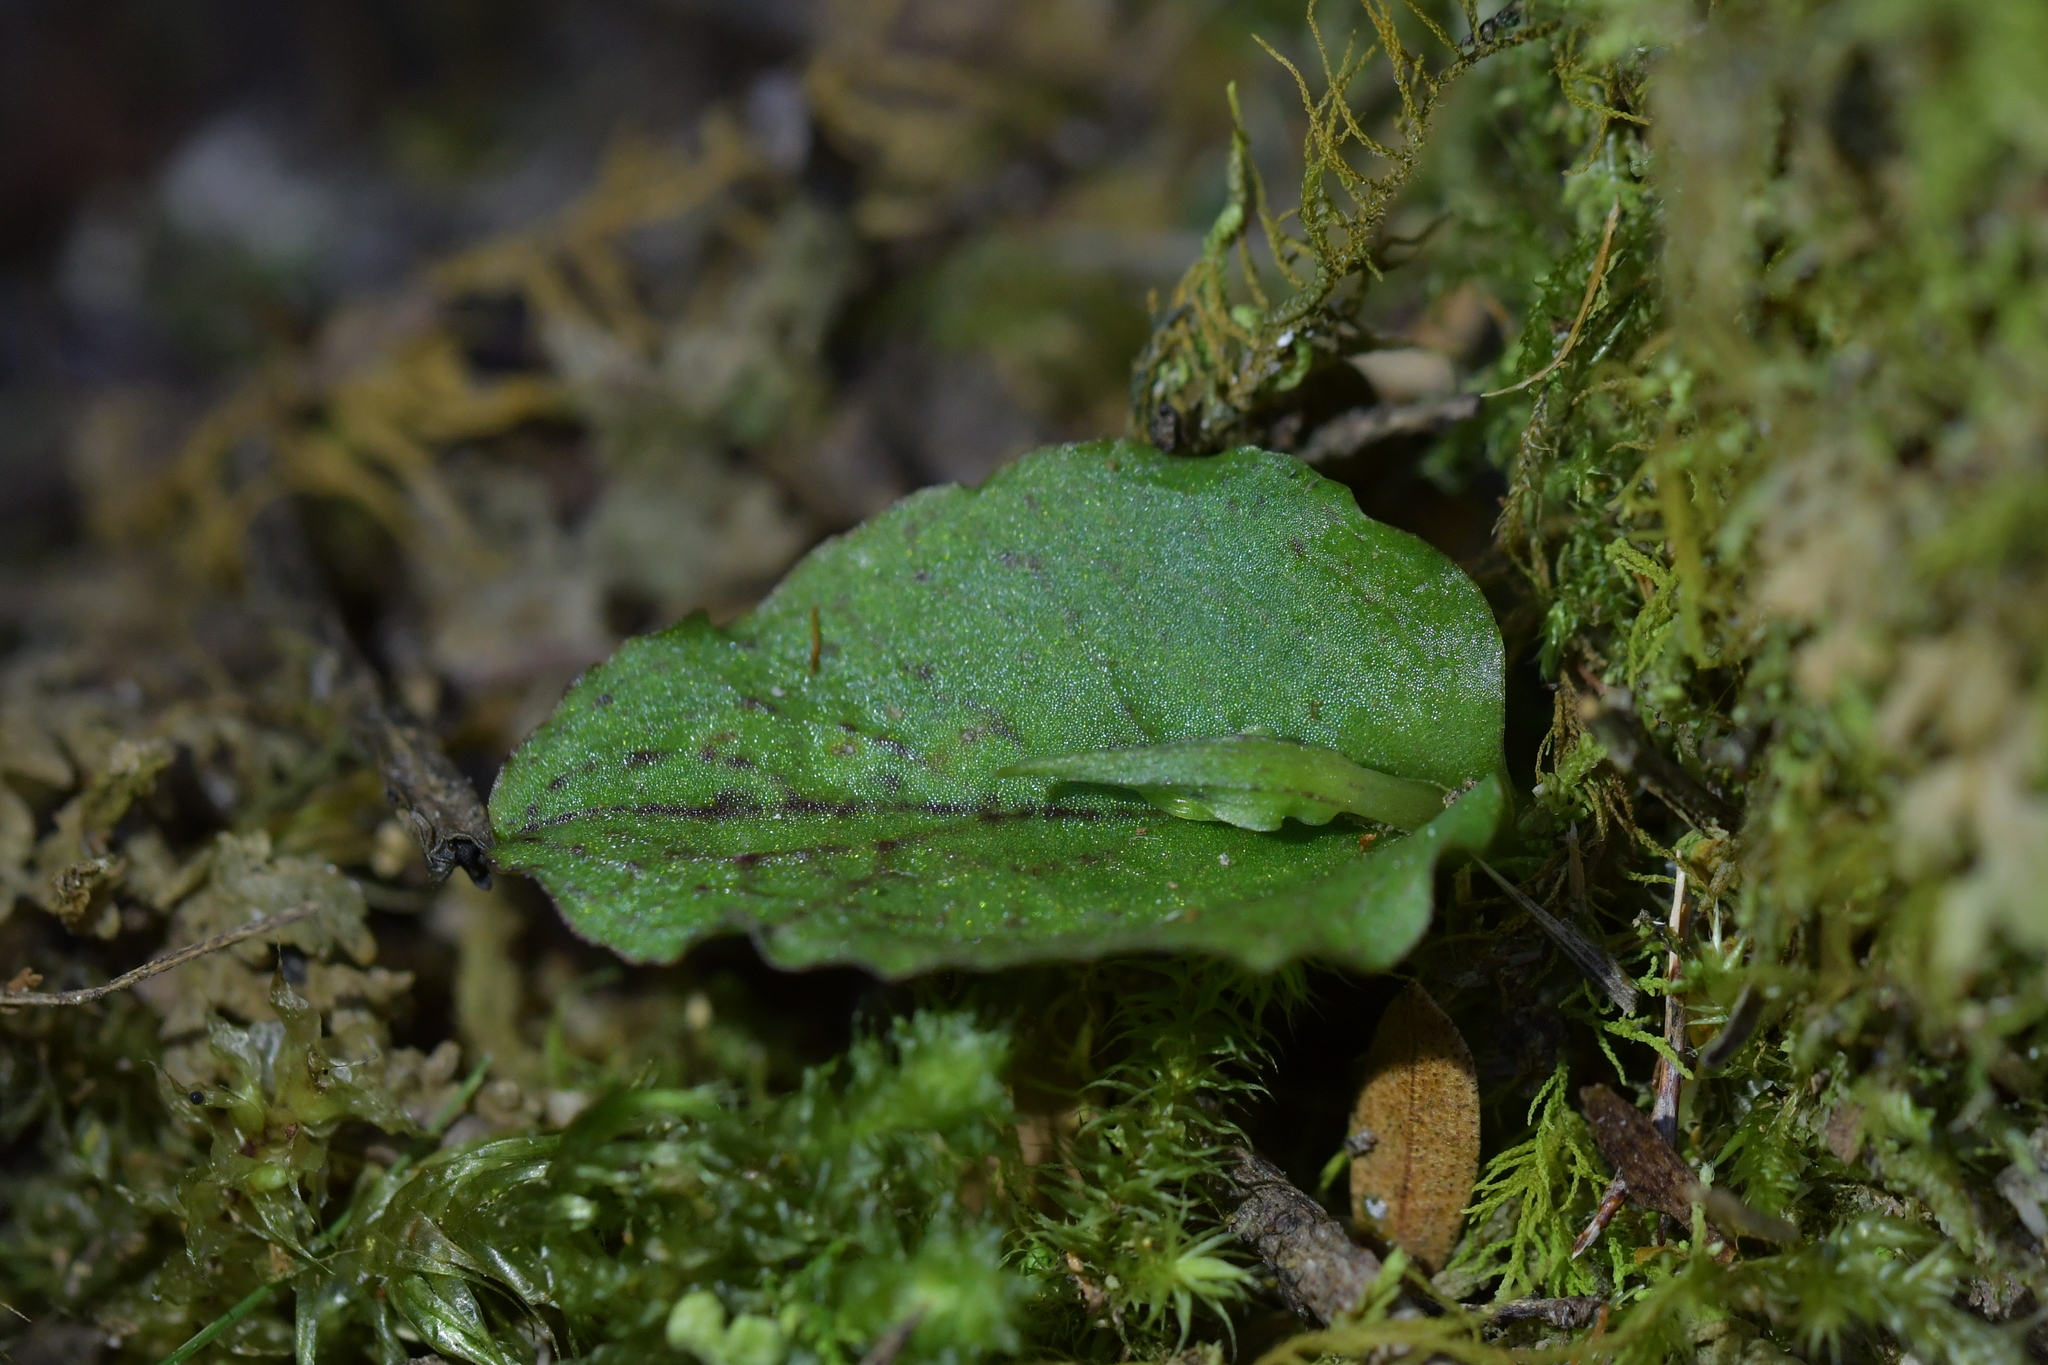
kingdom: Plantae
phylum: Tracheophyta
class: Liliopsida
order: Asparagales
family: Orchidaceae
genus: Corybas
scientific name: Corybas oblongus
